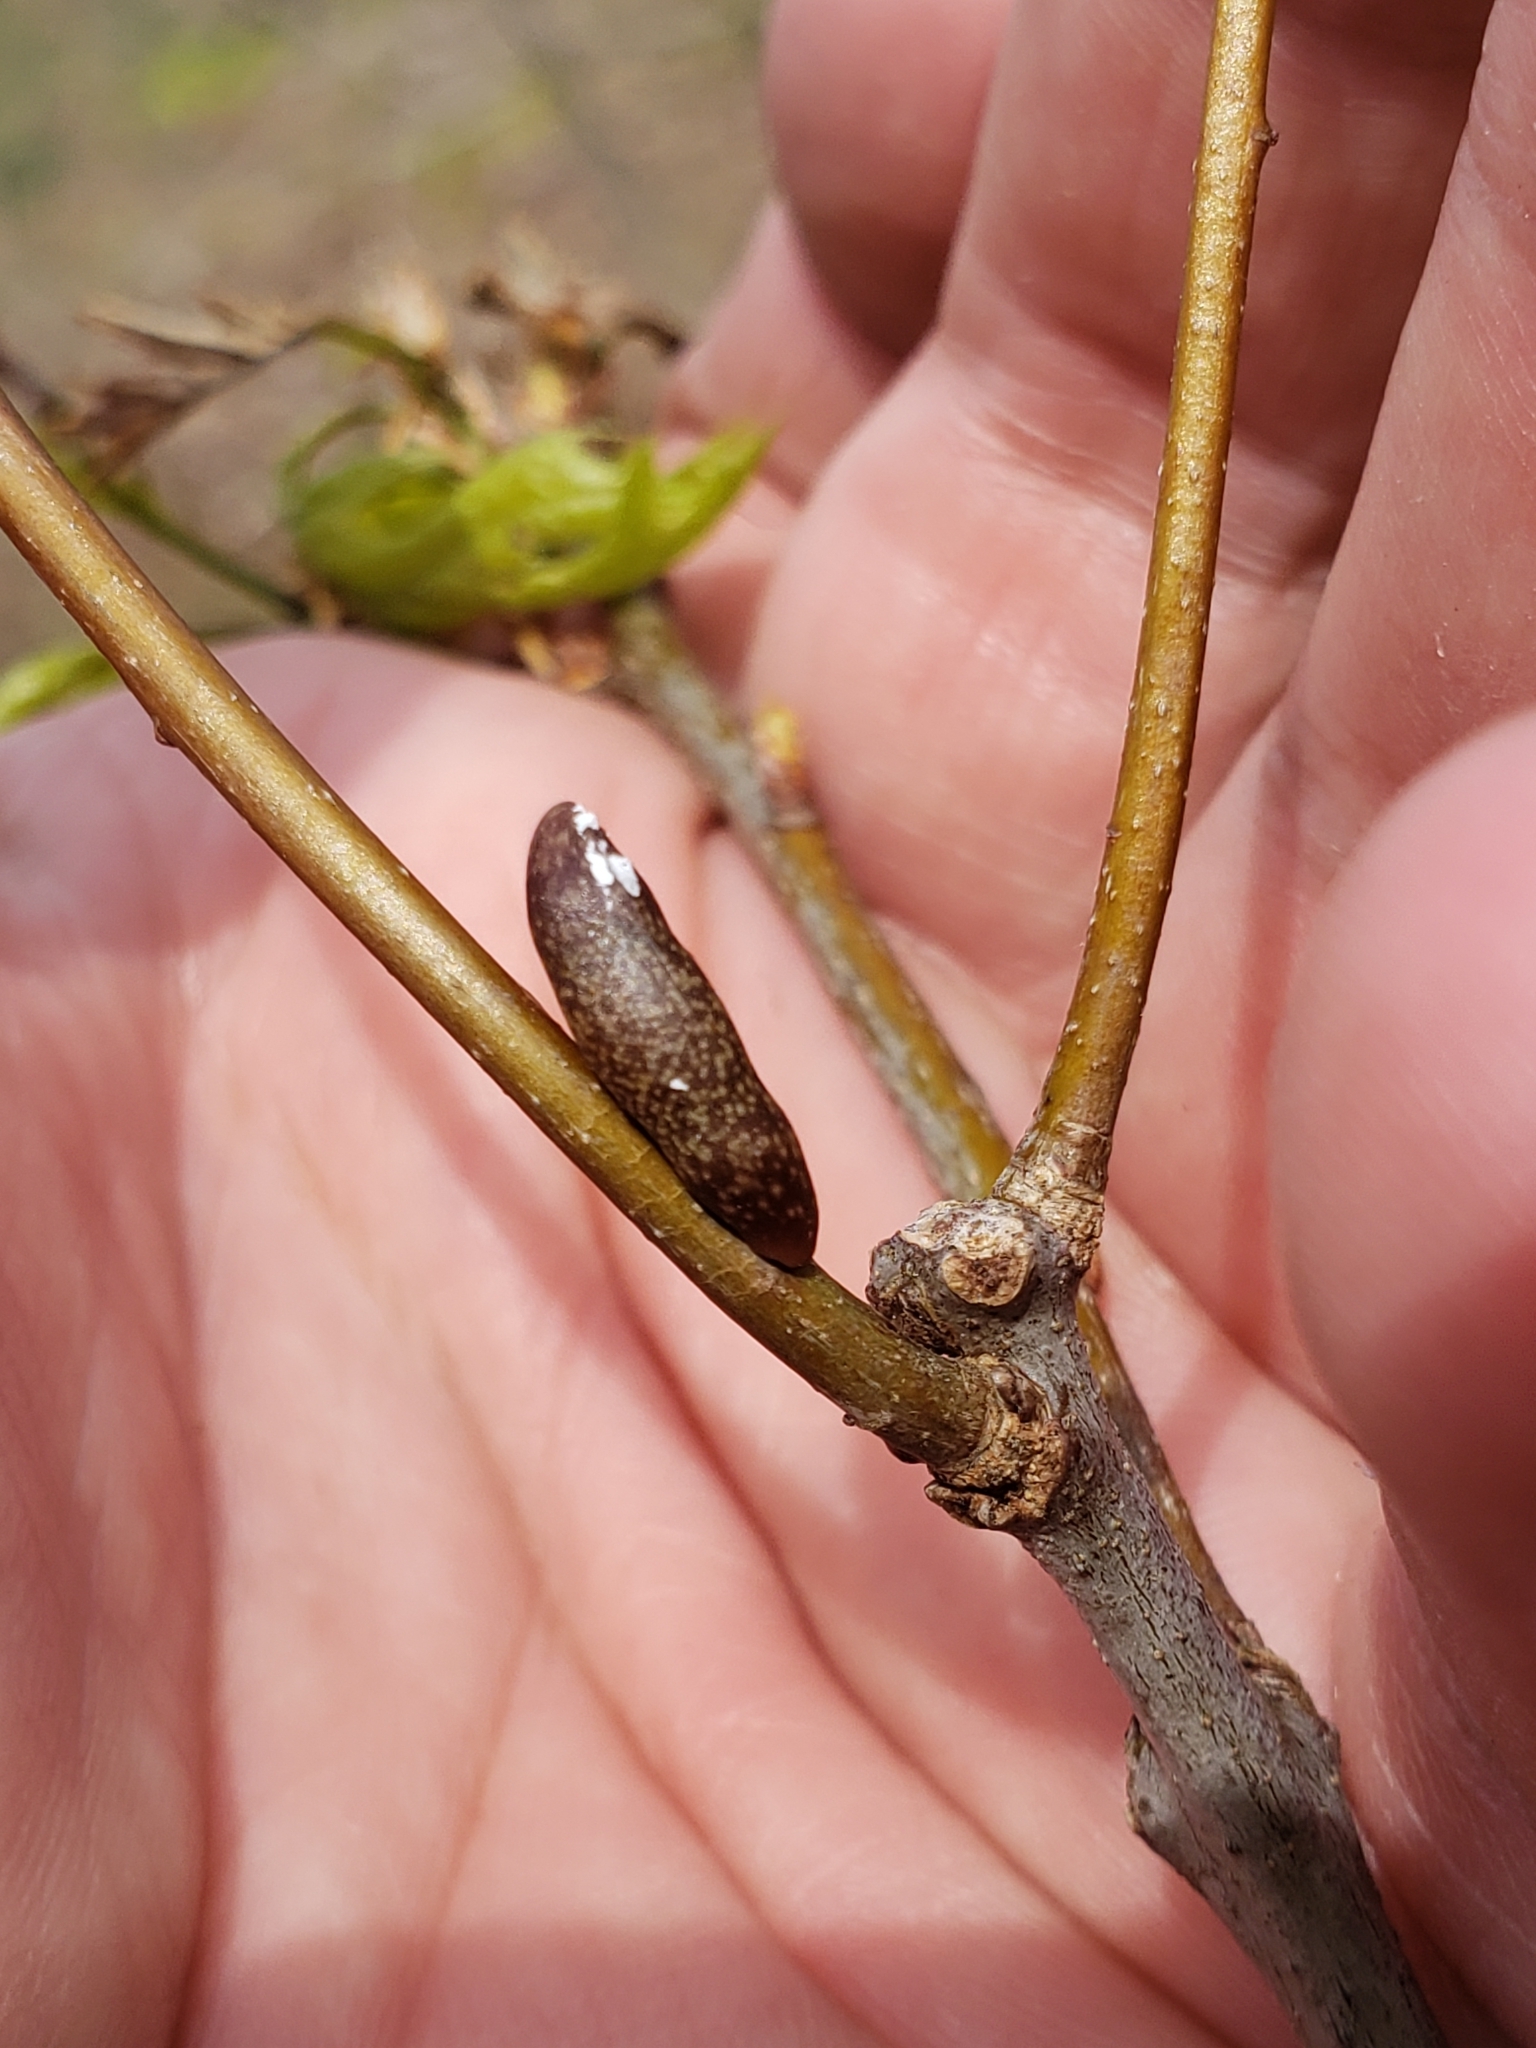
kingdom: Animalia
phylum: Arthropoda
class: Insecta
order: Hymenoptera
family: Cynipidae
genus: Amphibolips
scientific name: Amphibolips
